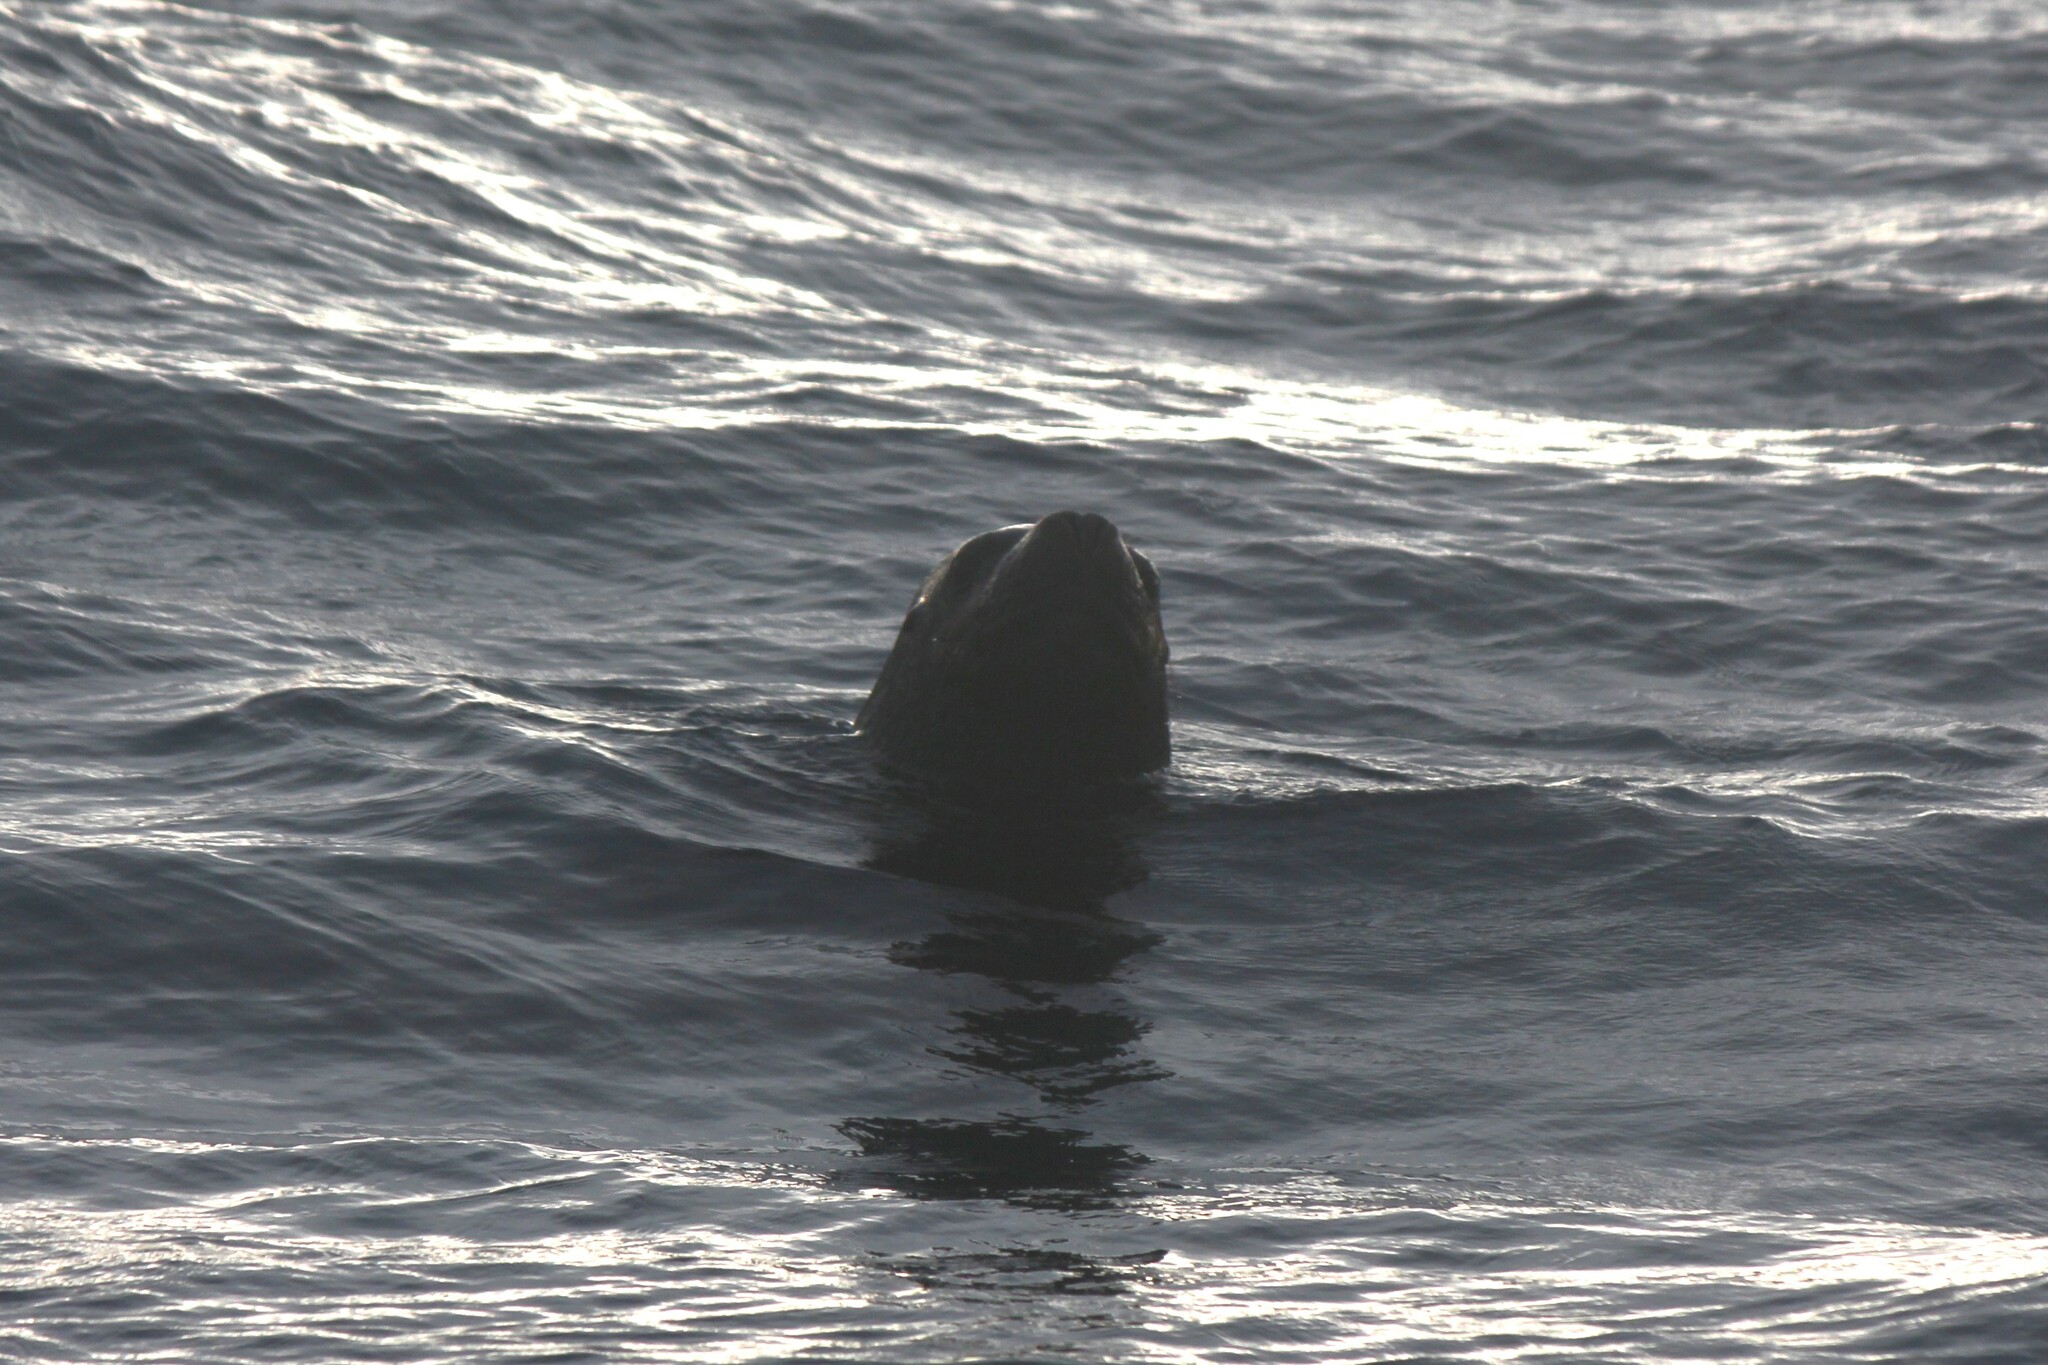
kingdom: Animalia
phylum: Chordata
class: Mammalia
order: Carnivora
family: Otariidae
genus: Otaria
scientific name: Otaria byronia
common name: South american sea lion
